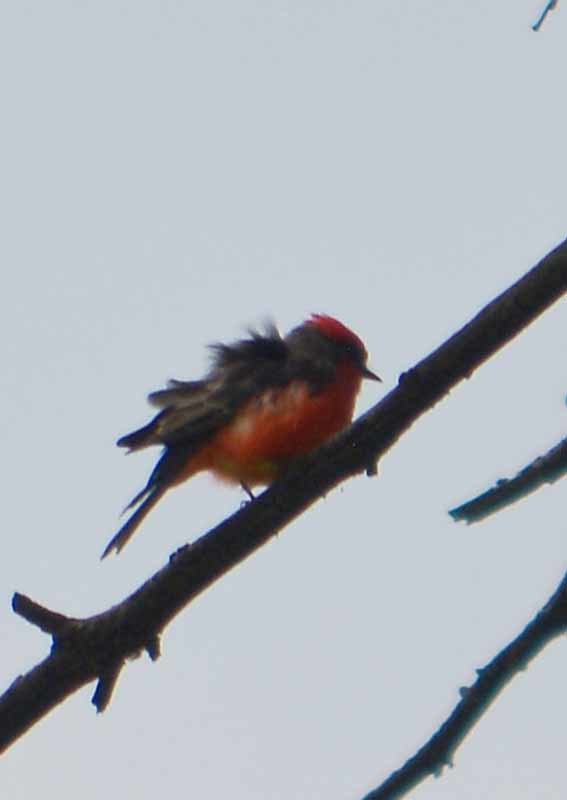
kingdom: Animalia
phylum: Chordata
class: Aves
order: Passeriformes
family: Tyrannidae
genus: Pyrocephalus
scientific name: Pyrocephalus rubinus
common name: Vermilion flycatcher
